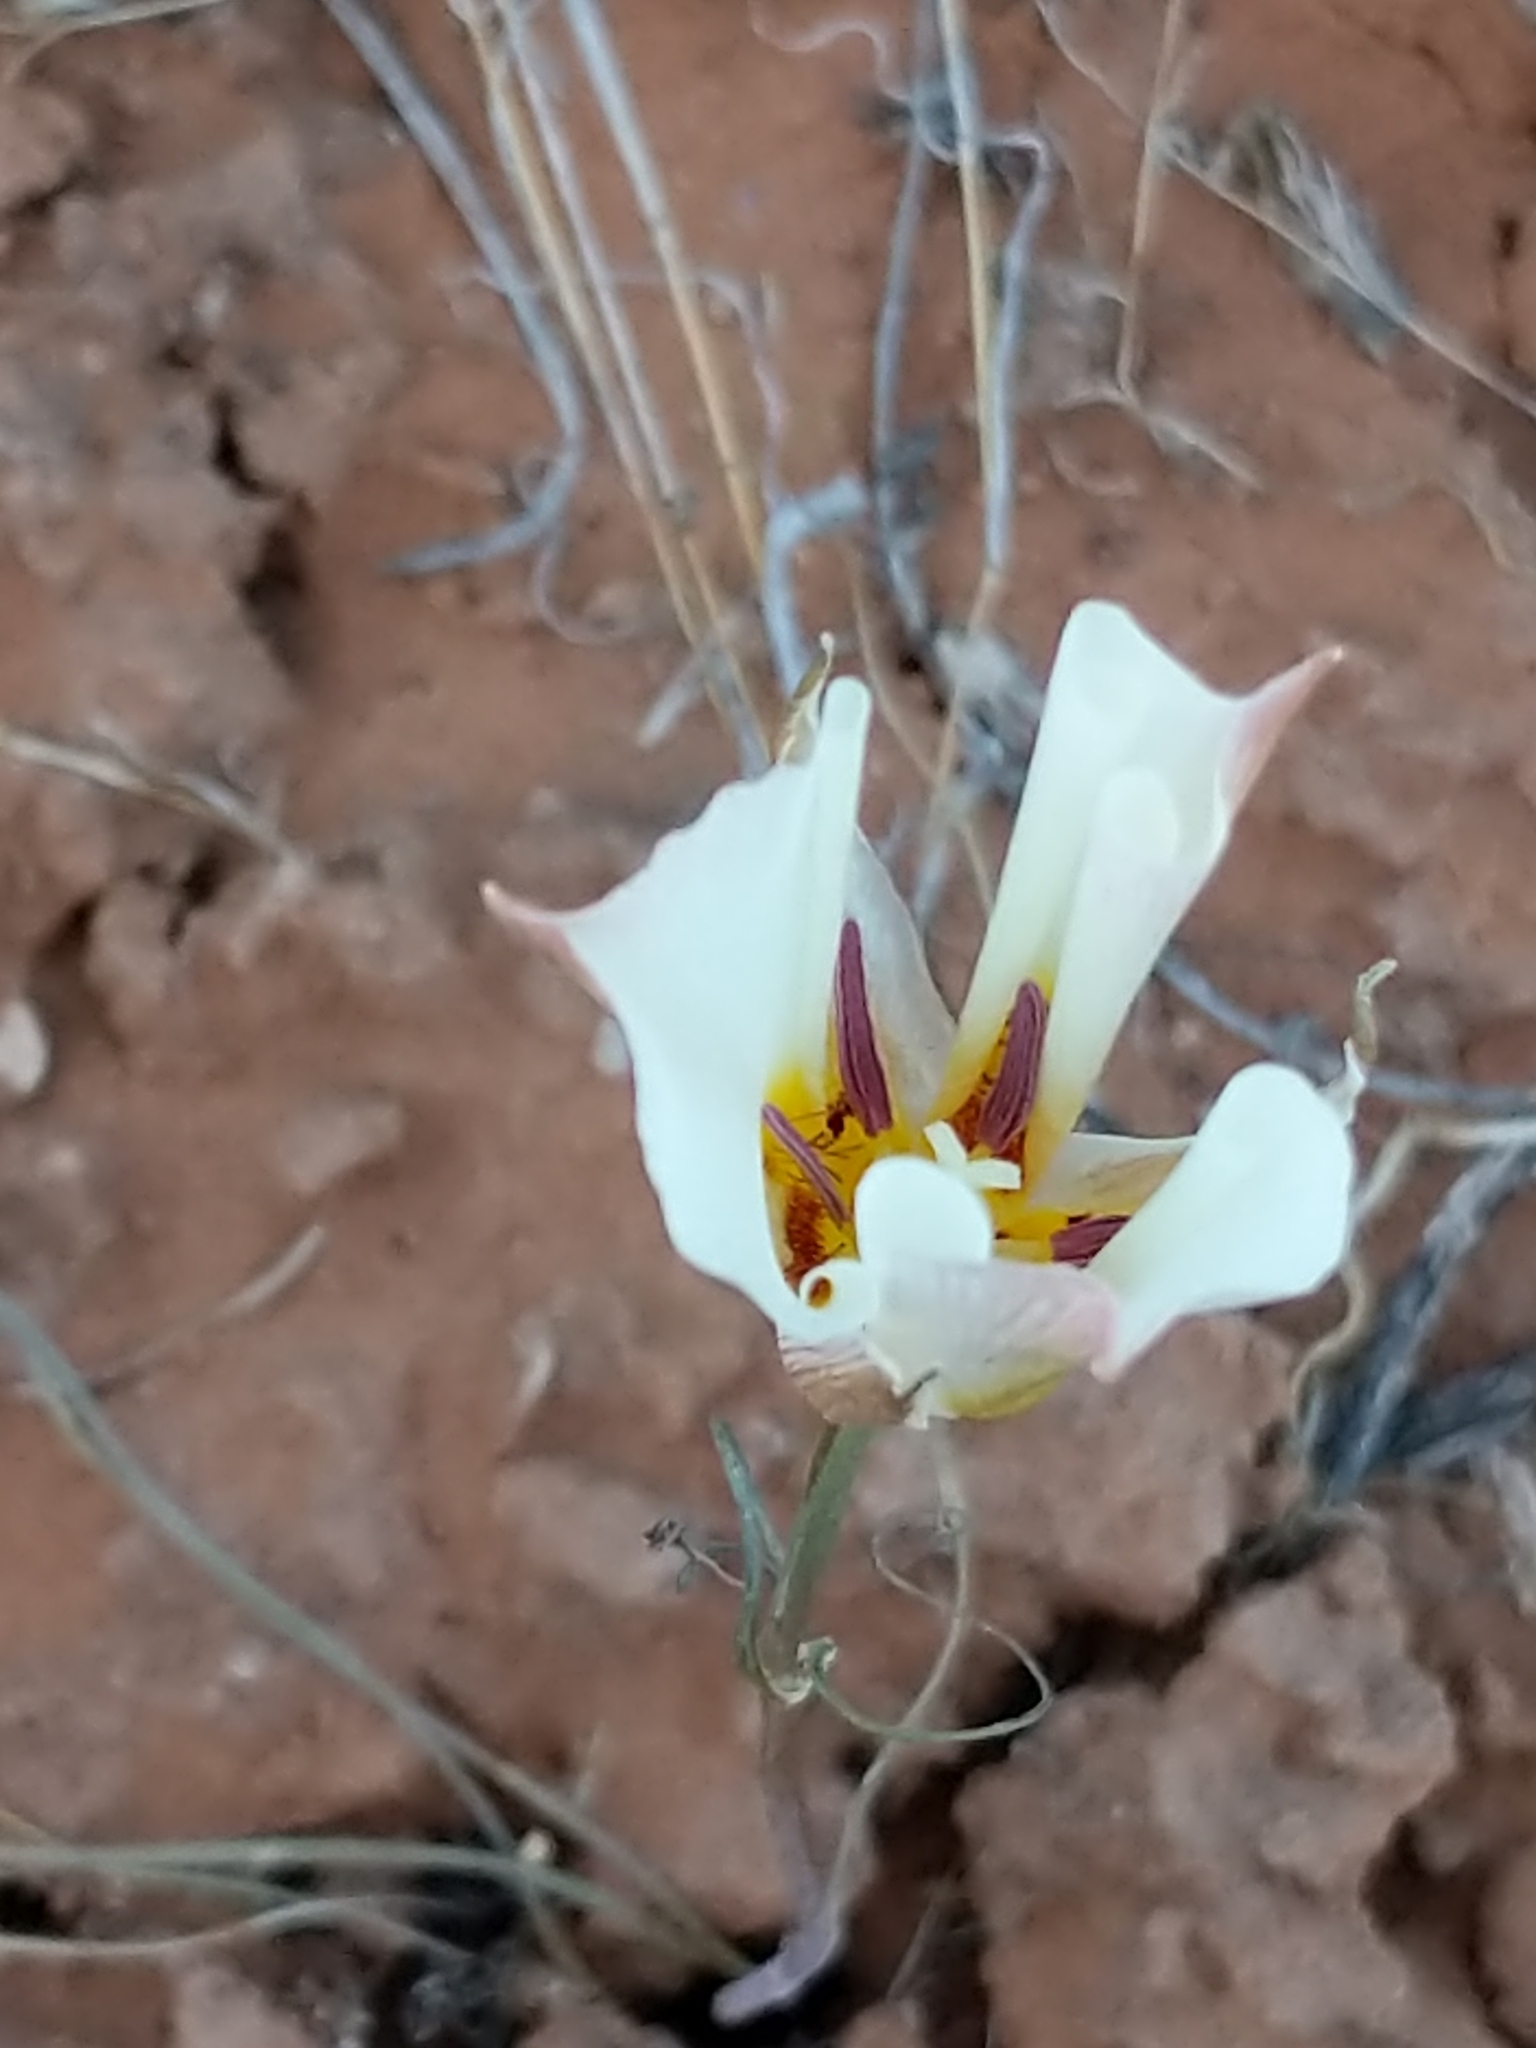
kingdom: Plantae
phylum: Tracheophyta
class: Liliopsida
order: Liliales
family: Liliaceae
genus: Calochortus
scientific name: Calochortus nuttallii
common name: Sego-lily
